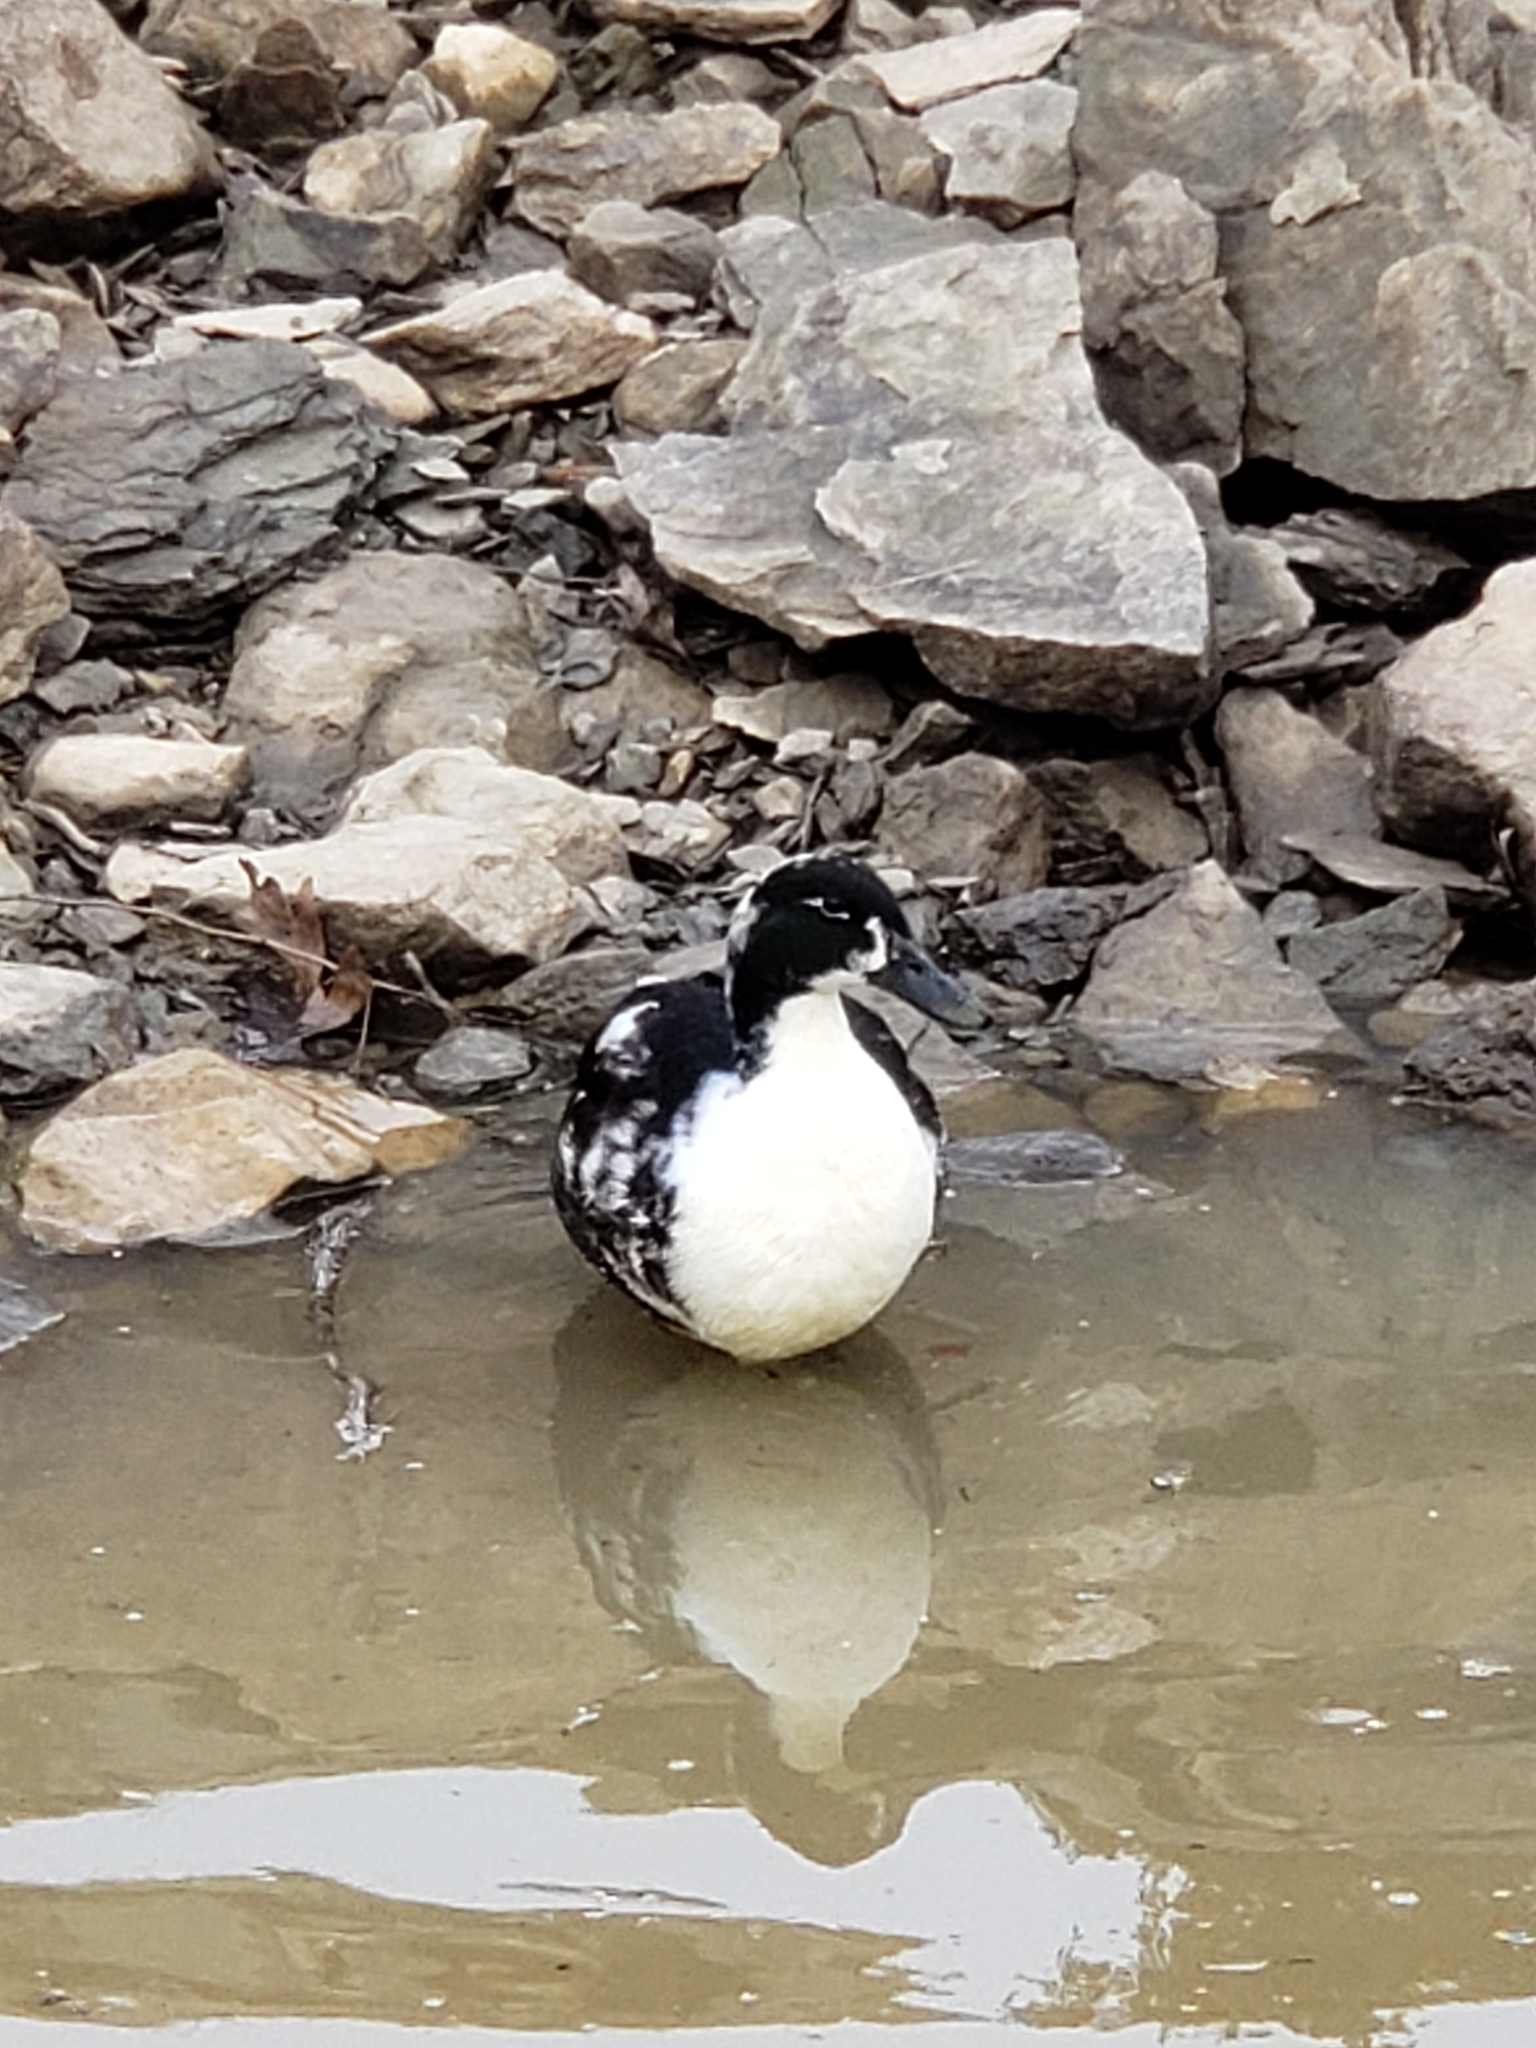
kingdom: Animalia
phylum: Chordata
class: Aves
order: Anseriformes
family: Anatidae
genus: Anas
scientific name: Anas platyrhynchos
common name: Mallard
